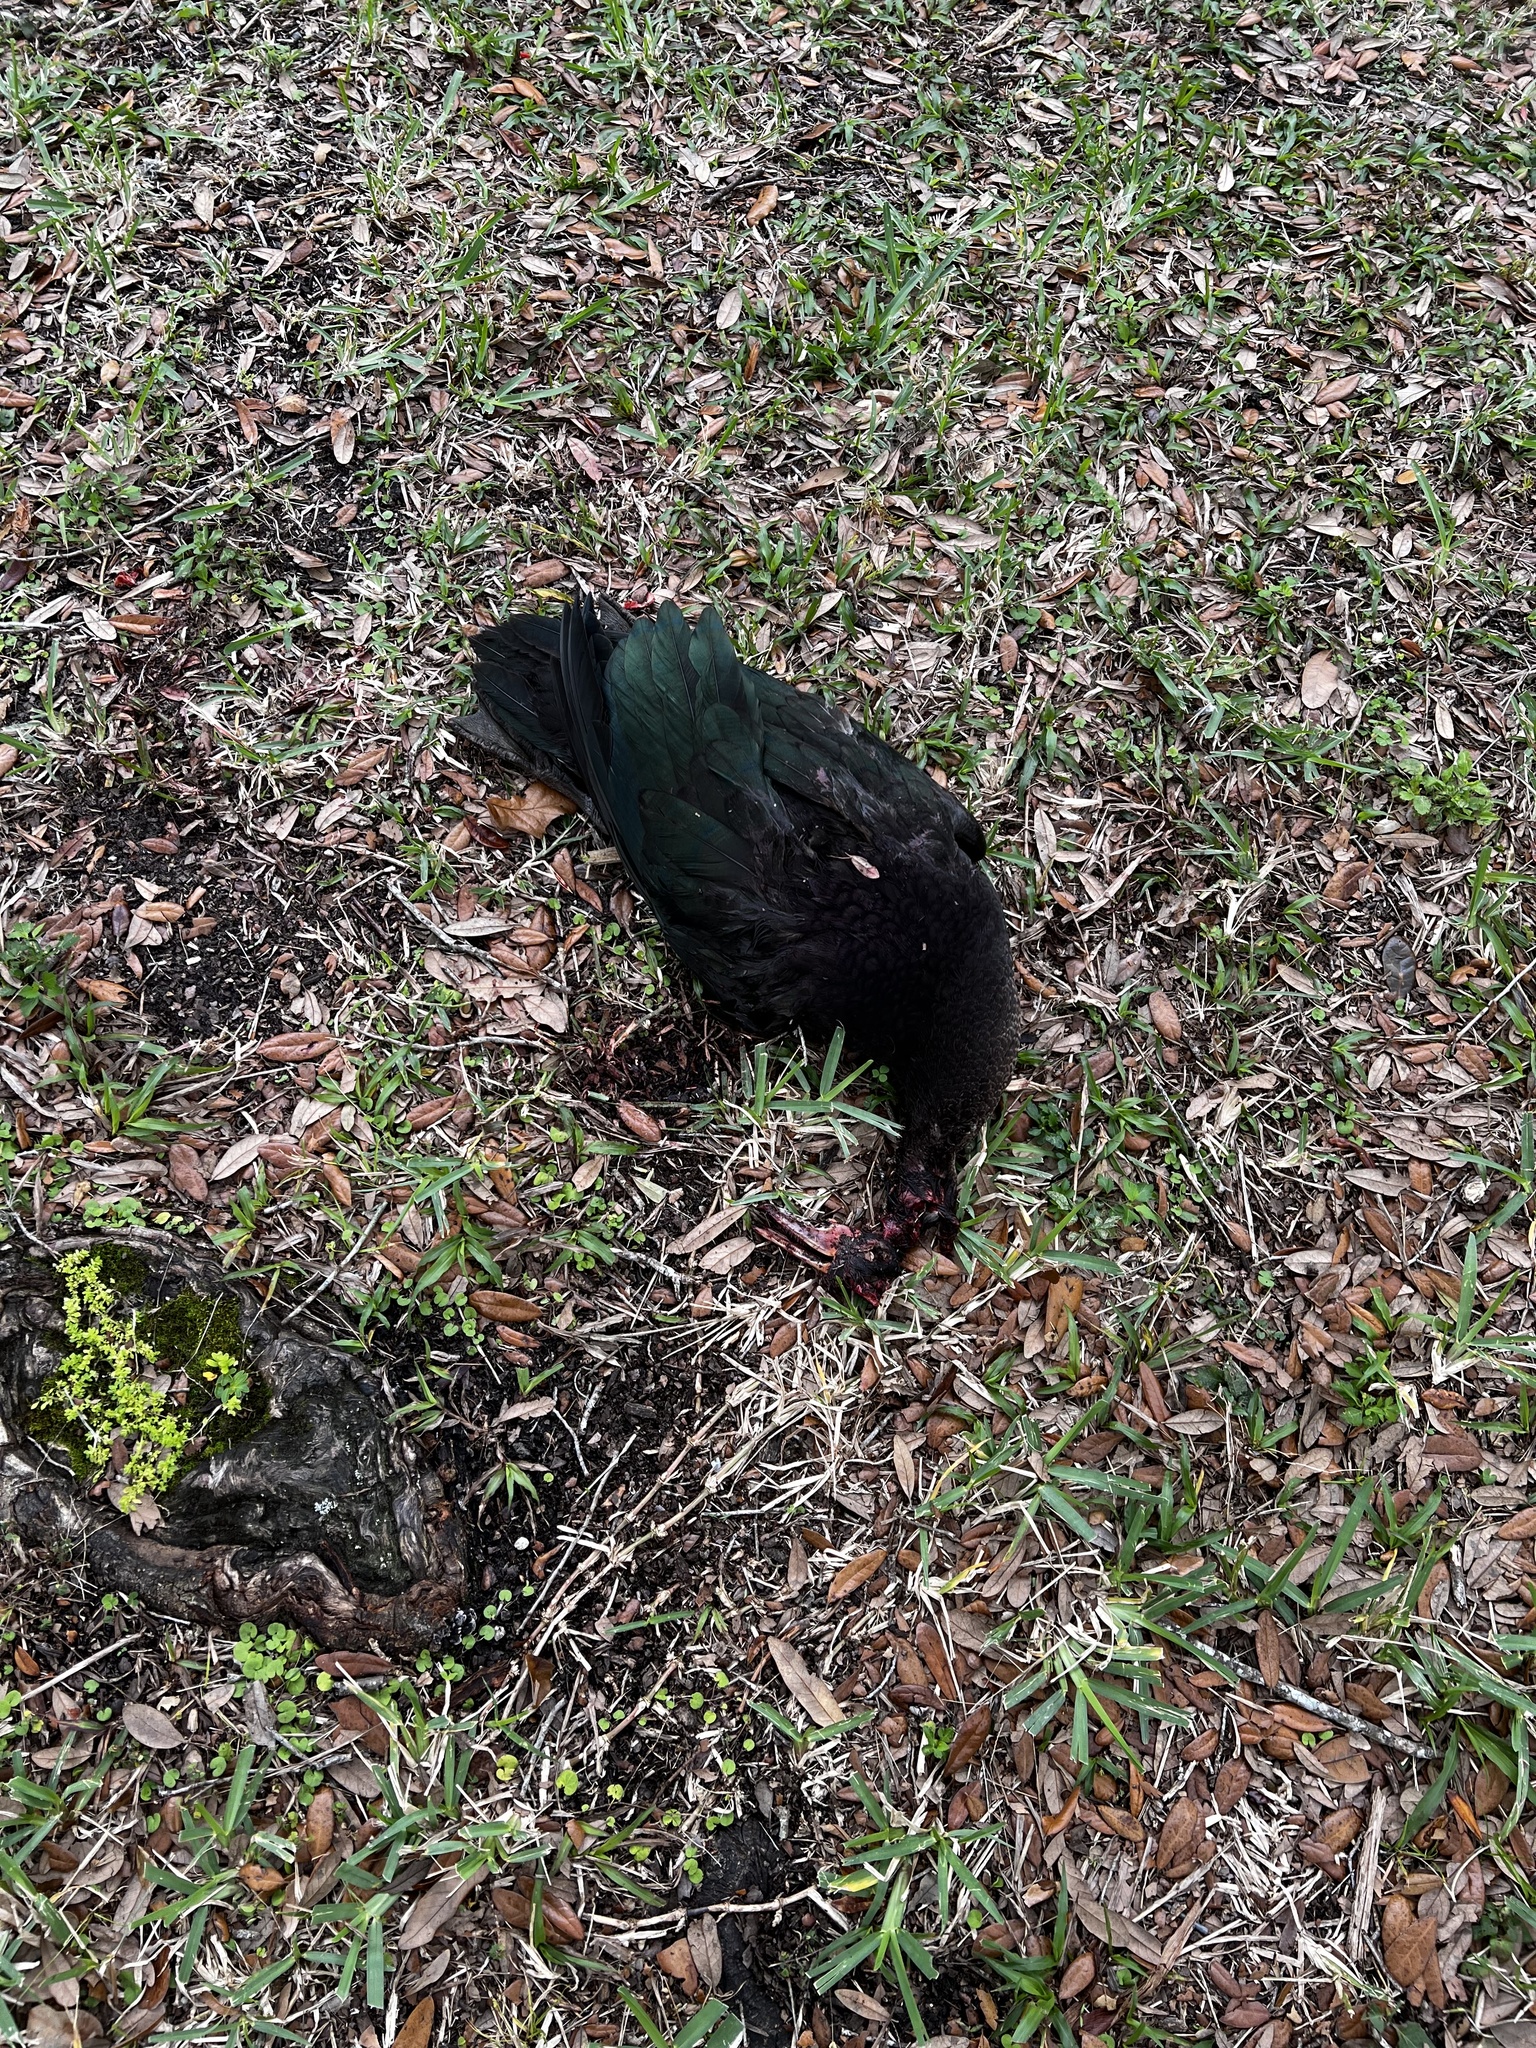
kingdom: Animalia
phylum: Chordata
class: Aves
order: Anseriformes
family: Anatidae
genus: Cairina
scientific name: Cairina moschata
